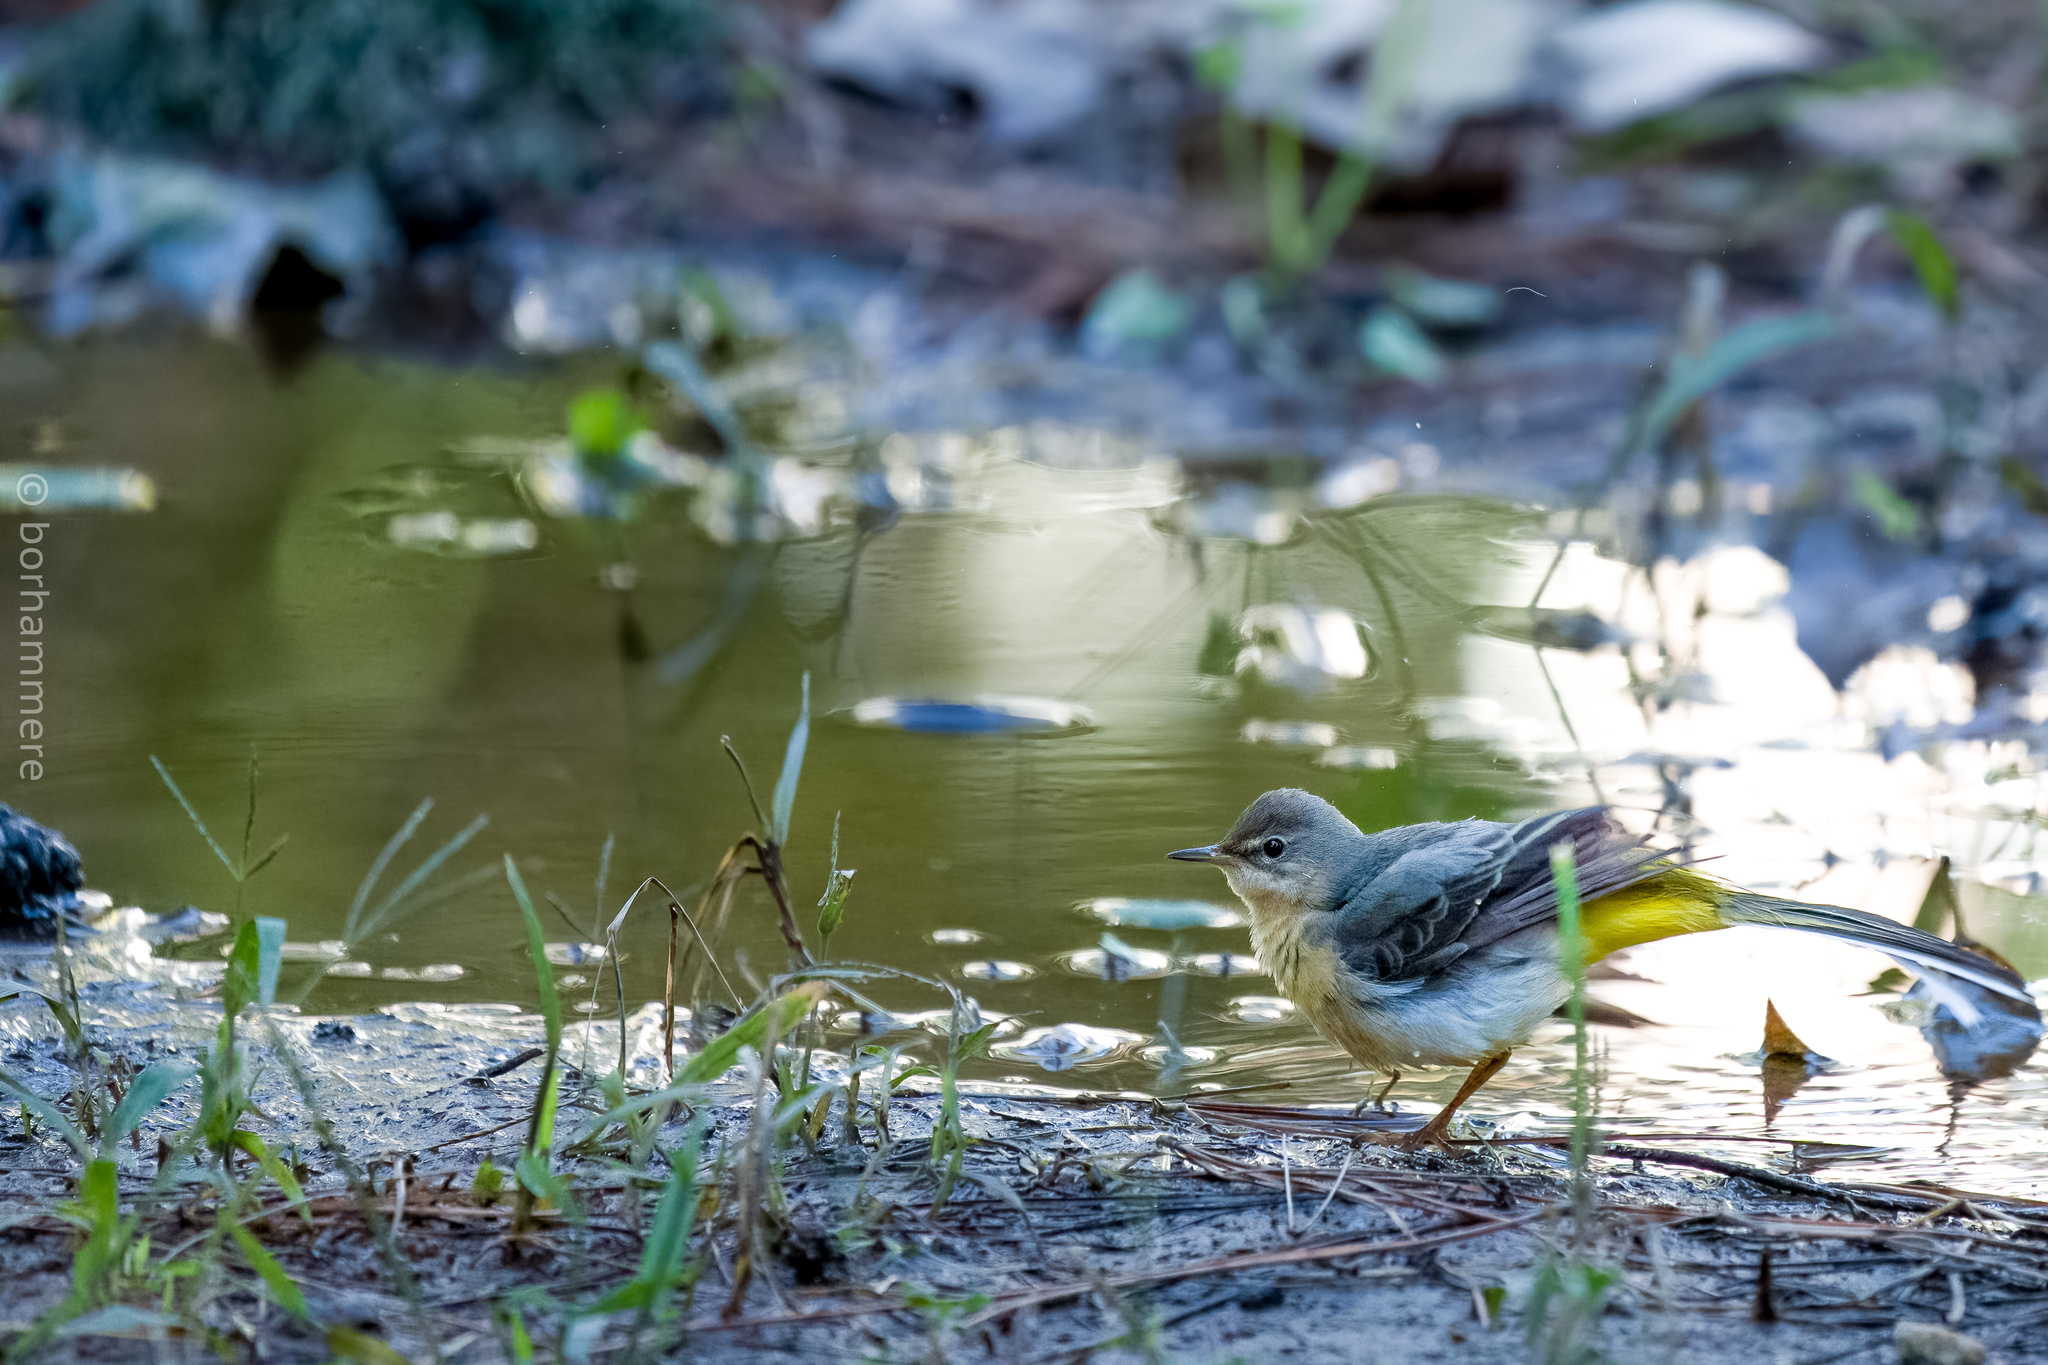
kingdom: Animalia
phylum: Chordata
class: Aves
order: Passeriformes
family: Motacillidae
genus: Motacilla
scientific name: Motacilla cinerea
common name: Grey wagtail
